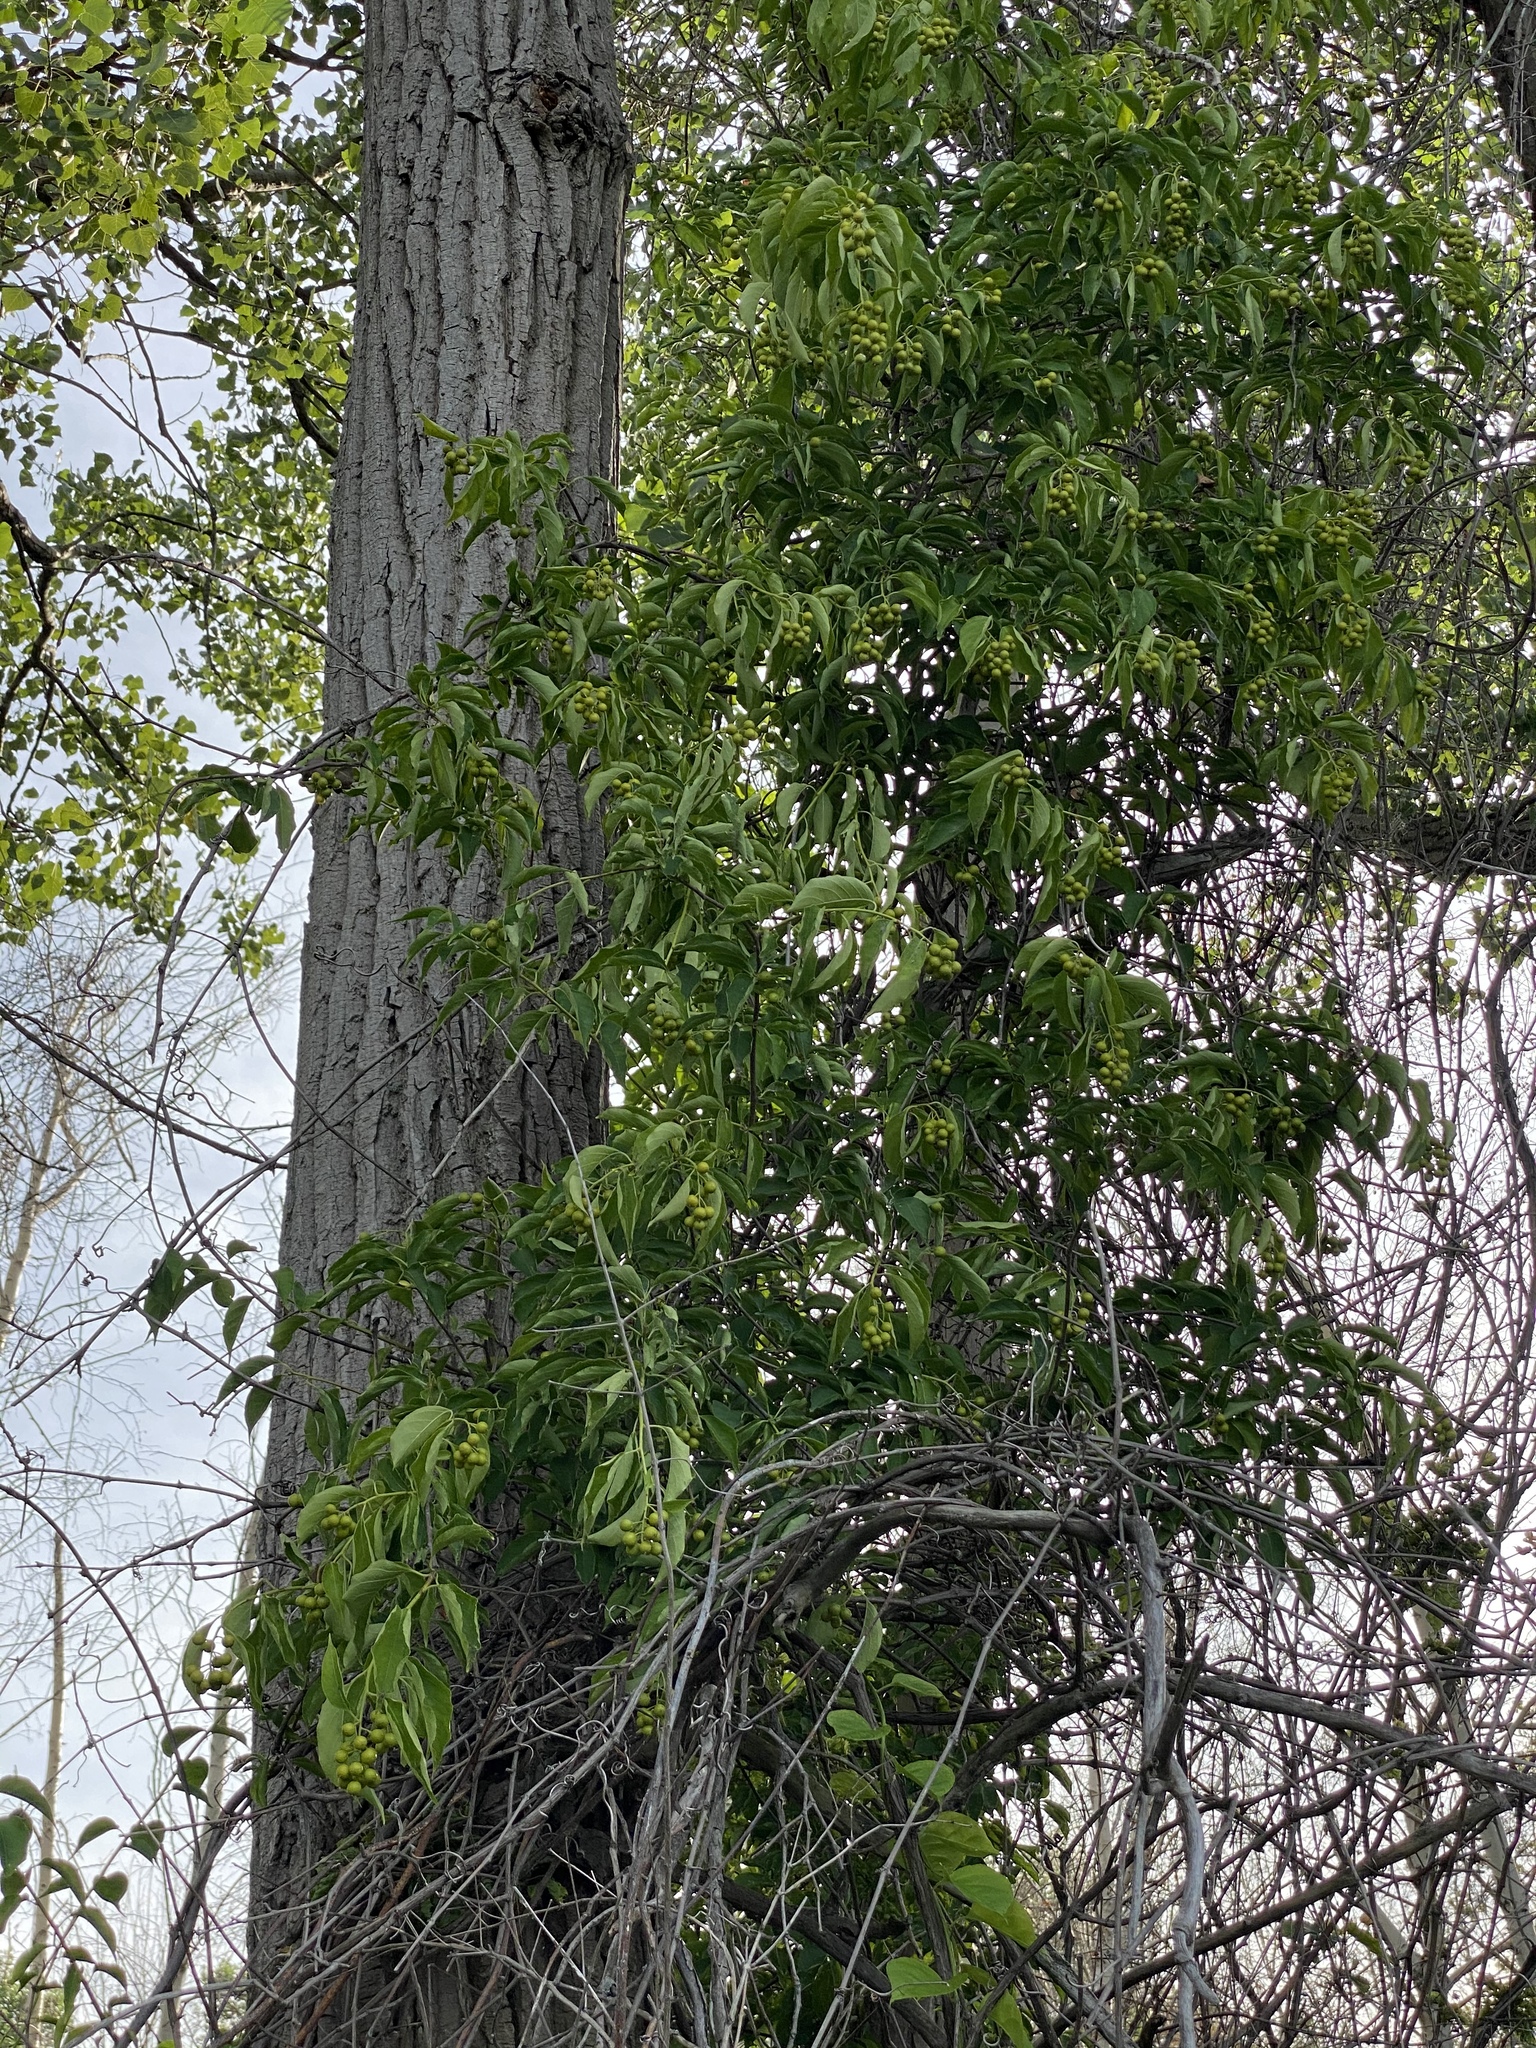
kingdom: Plantae
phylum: Tracheophyta
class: Magnoliopsida
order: Celastrales
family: Celastraceae
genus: Celastrus
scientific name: Celastrus scandens
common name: American bittersweet
